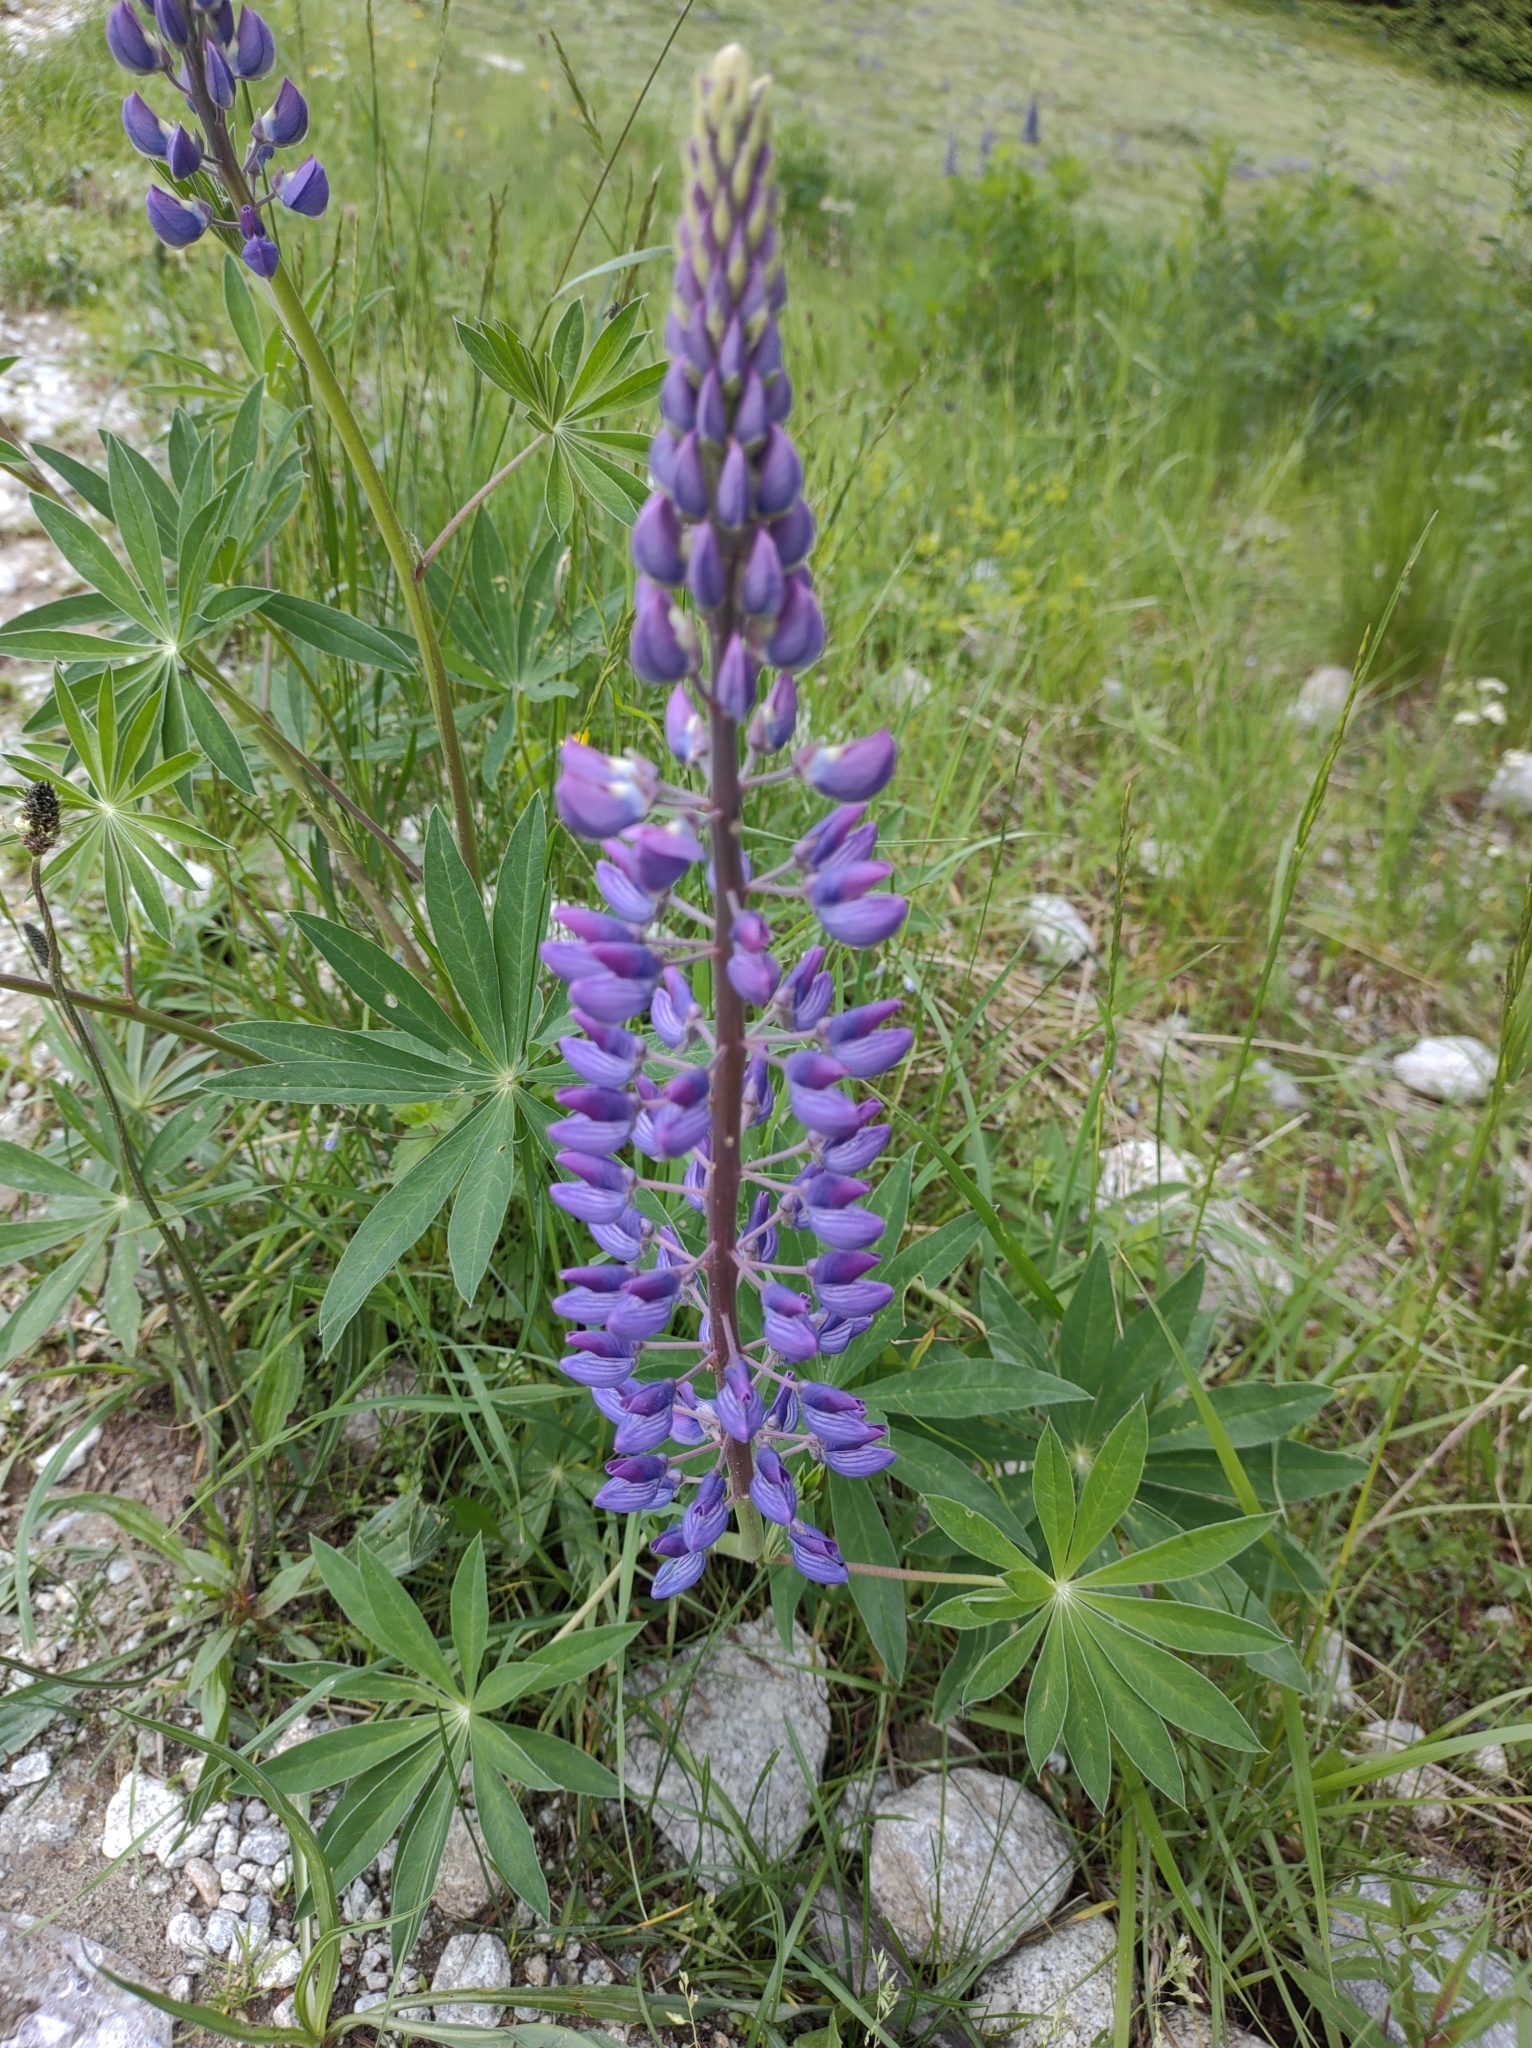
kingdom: Plantae
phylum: Tracheophyta
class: Magnoliopsida
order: Fabales
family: Fabaceae
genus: Lupinus
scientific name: Lupinus polyphyllus
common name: Garden lupin
